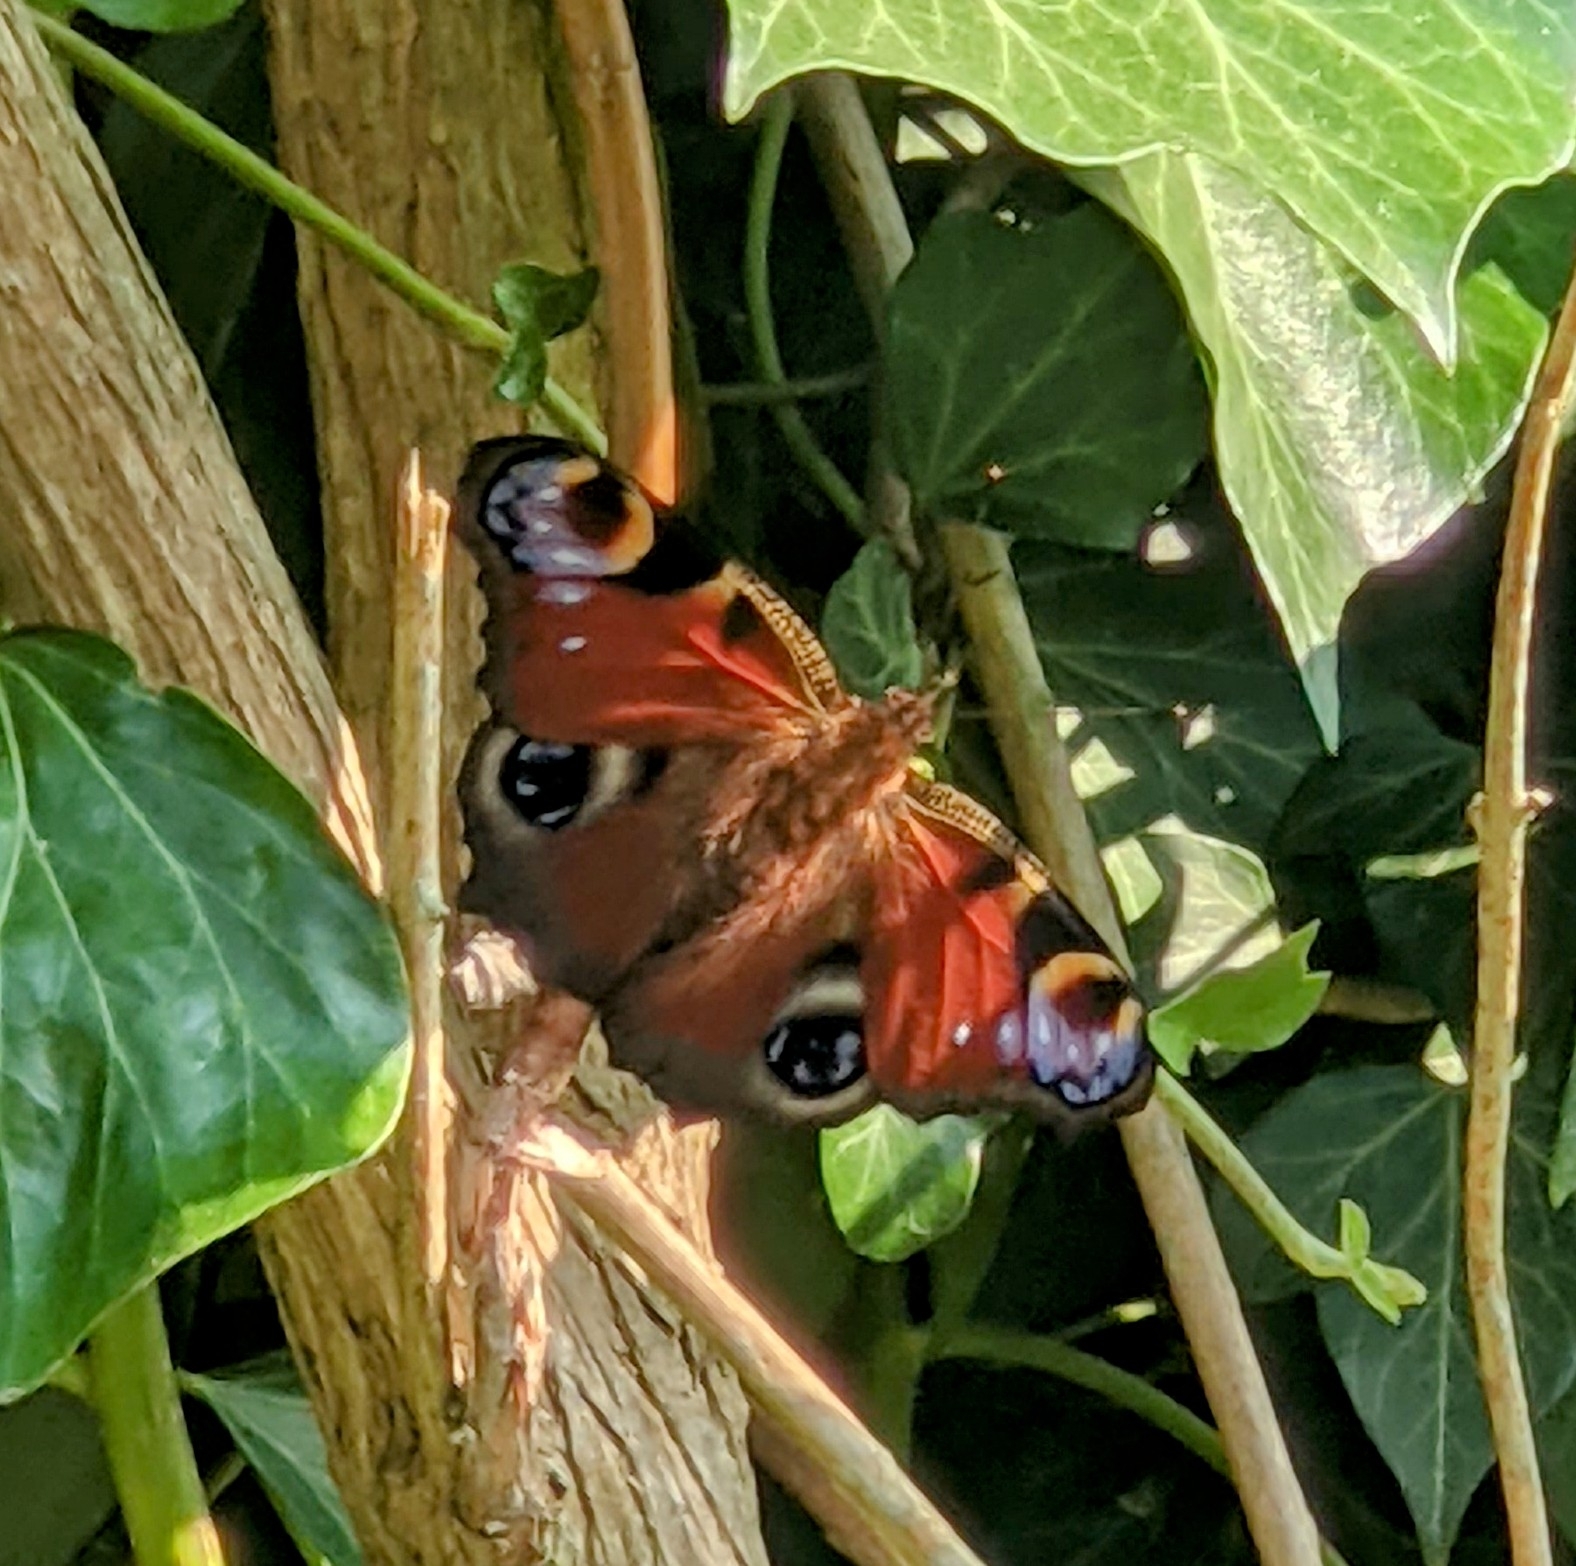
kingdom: Animalia
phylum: Arthropoda
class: Insecta
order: Lepidoptera
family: Nymphalidae
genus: Aglais
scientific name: Aglais io
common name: Peacock
